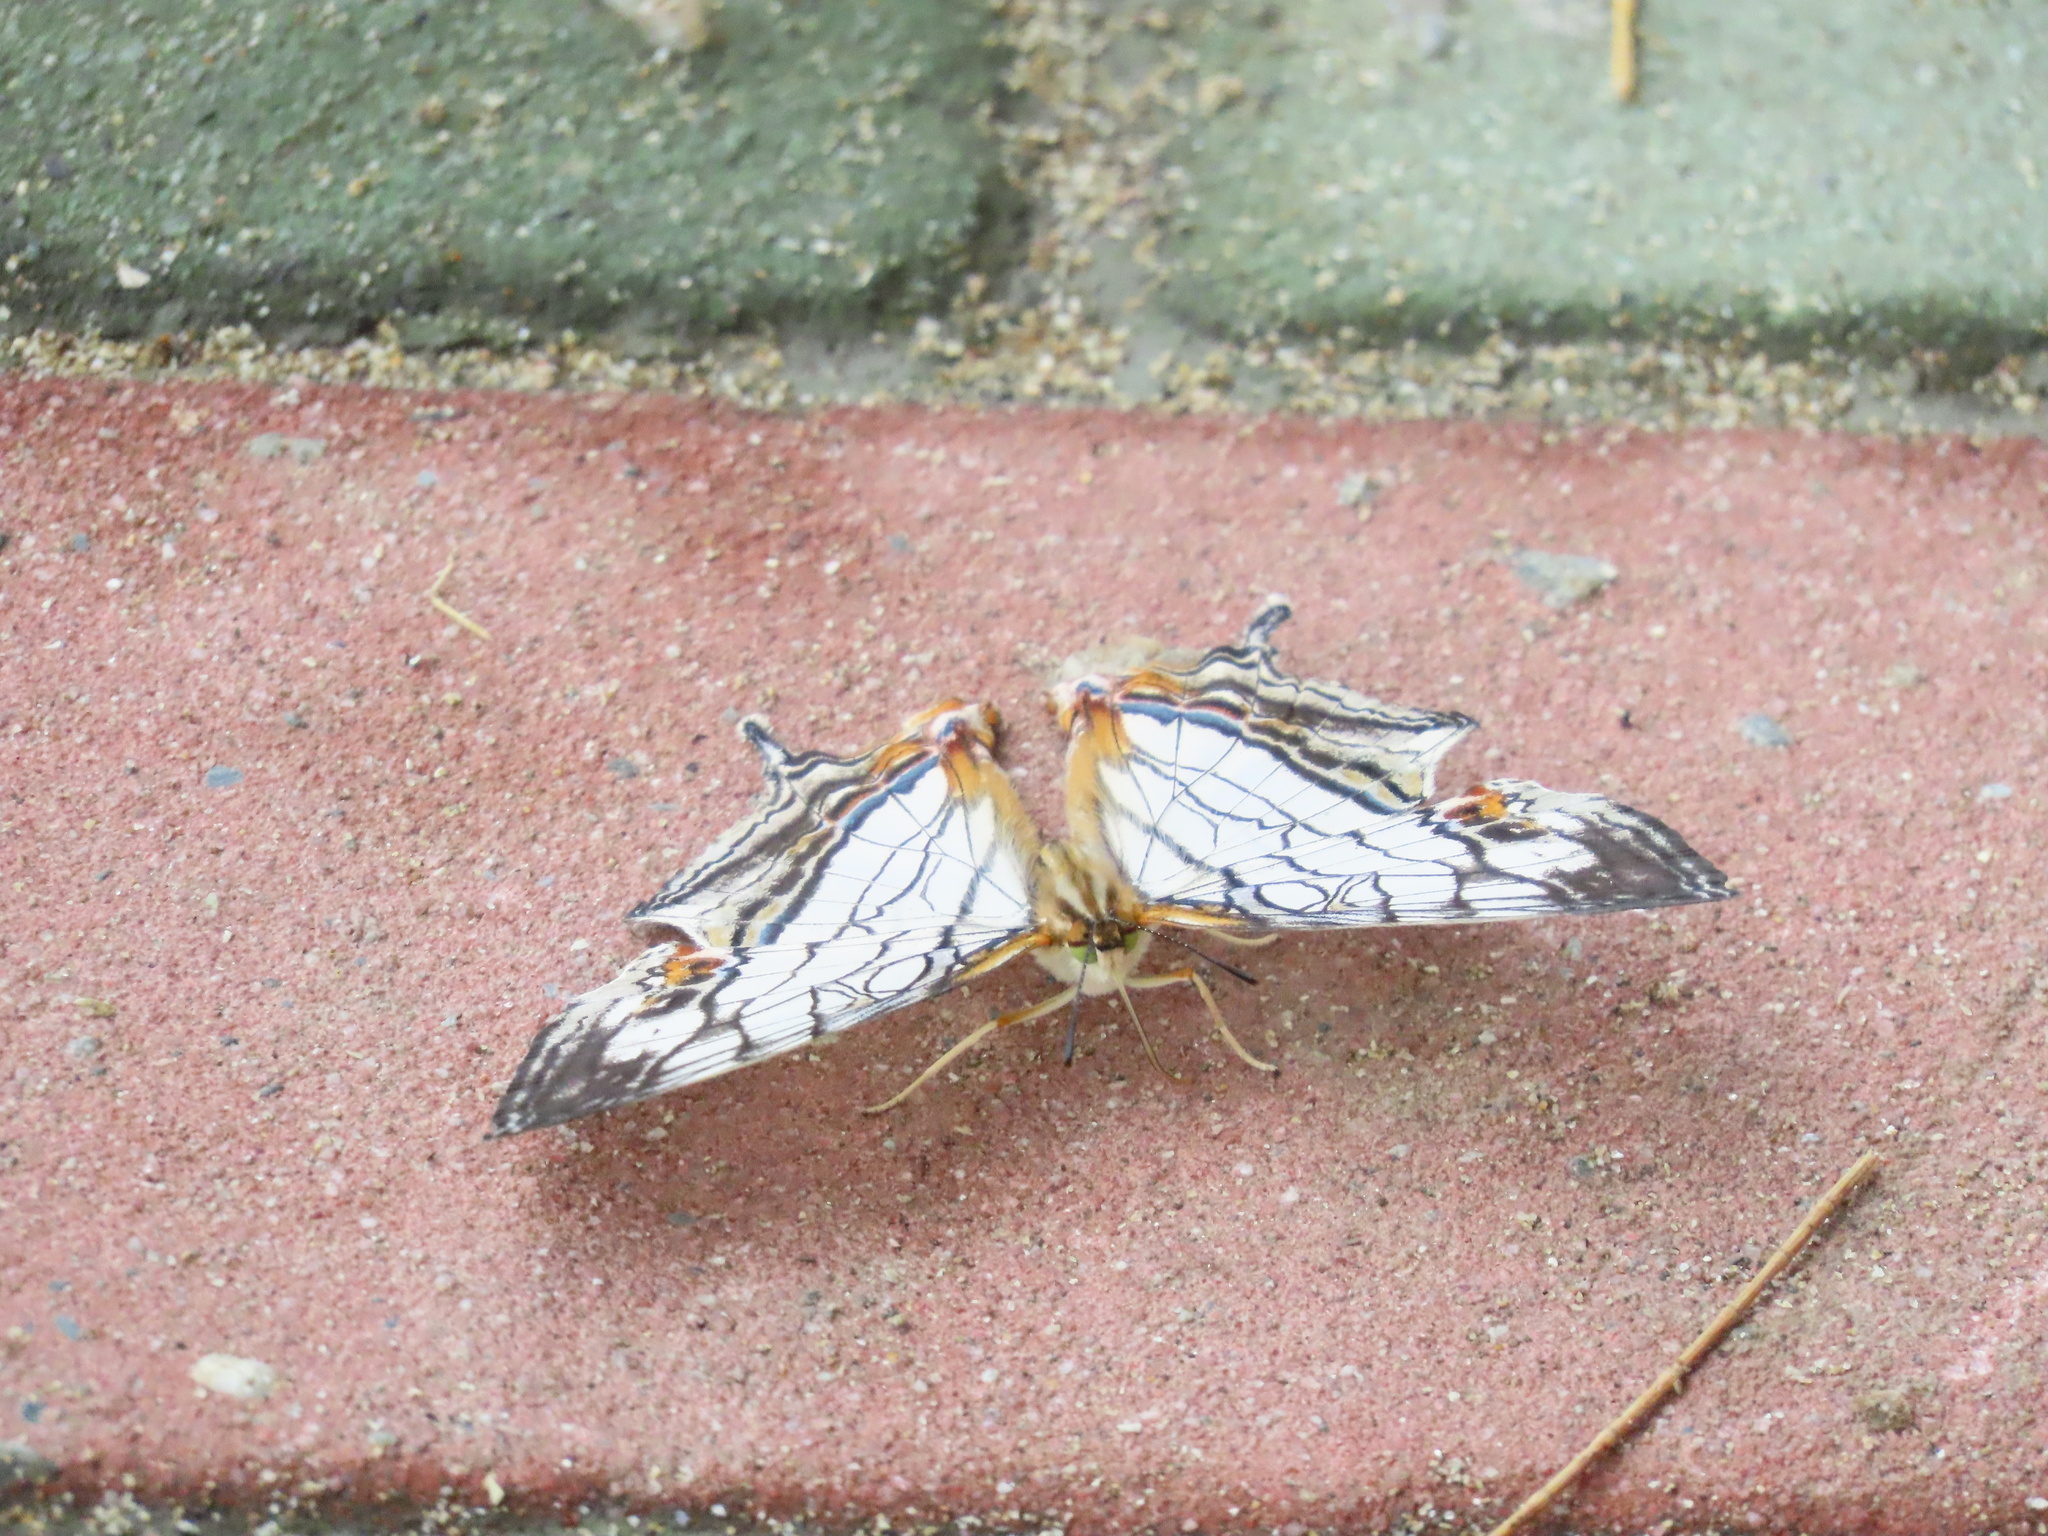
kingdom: Animalia
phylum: Arthropoda
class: Insecta
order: Lepidoptera
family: Nymphalidae
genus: Cyrestis
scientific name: Cyrestis thyodamas
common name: Common mapwing
